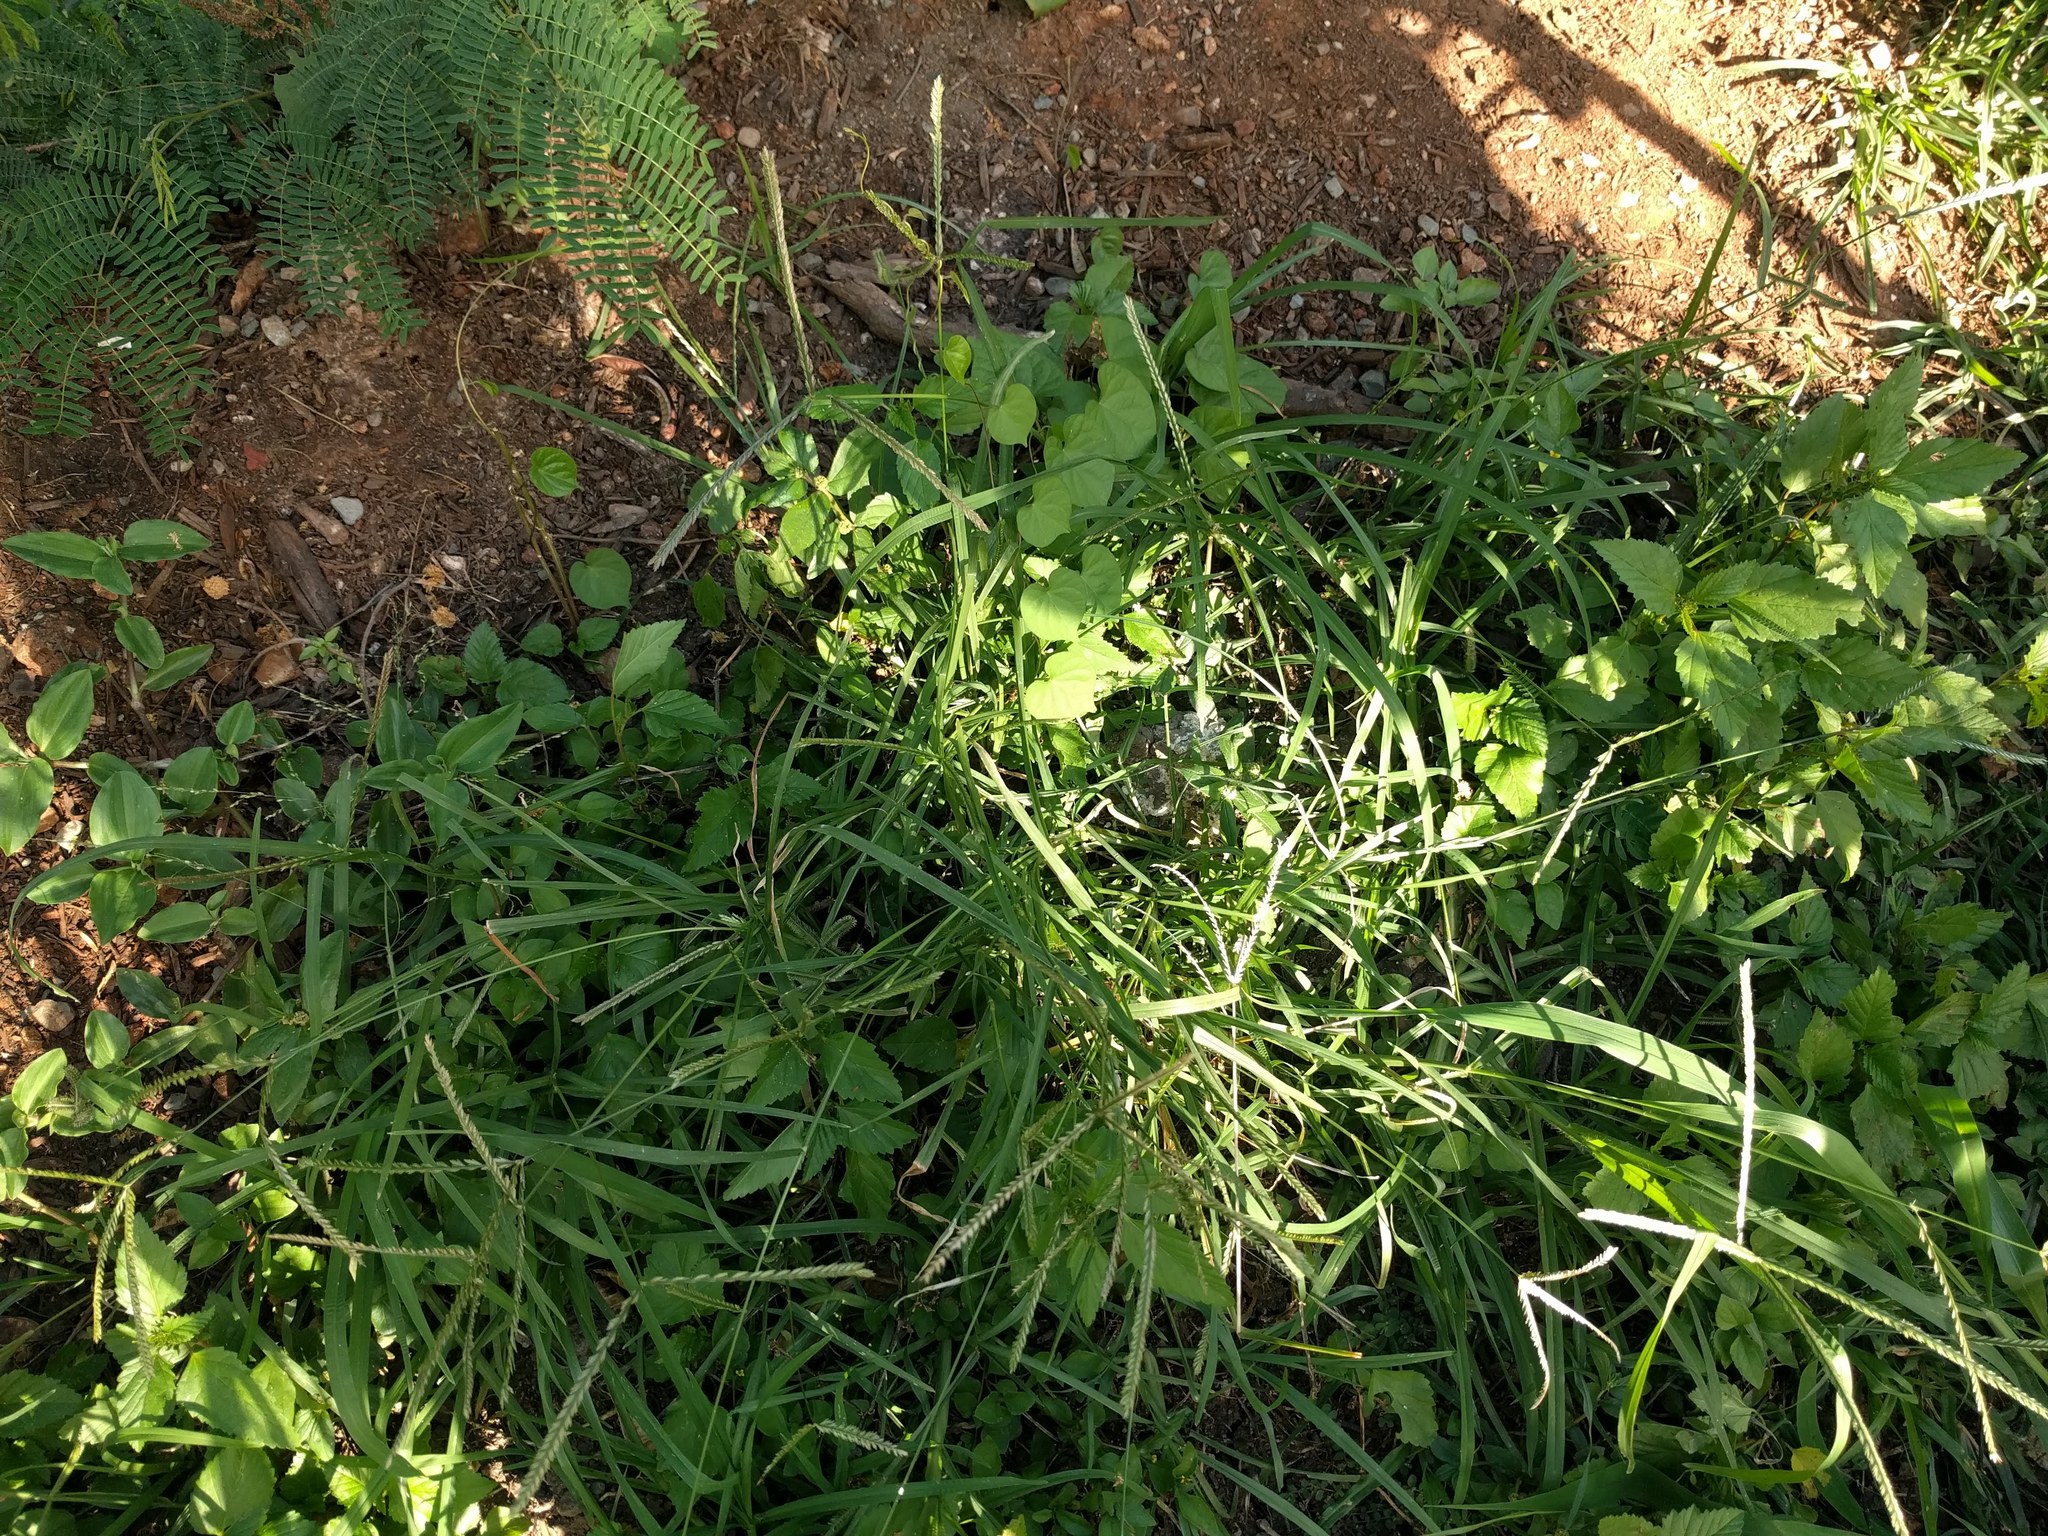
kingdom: Plantae
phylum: Tracheophyta
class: Liliopsida
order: Poales
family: Poaceae
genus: Eleusine
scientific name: Eleusine indica
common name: Yard-grass
